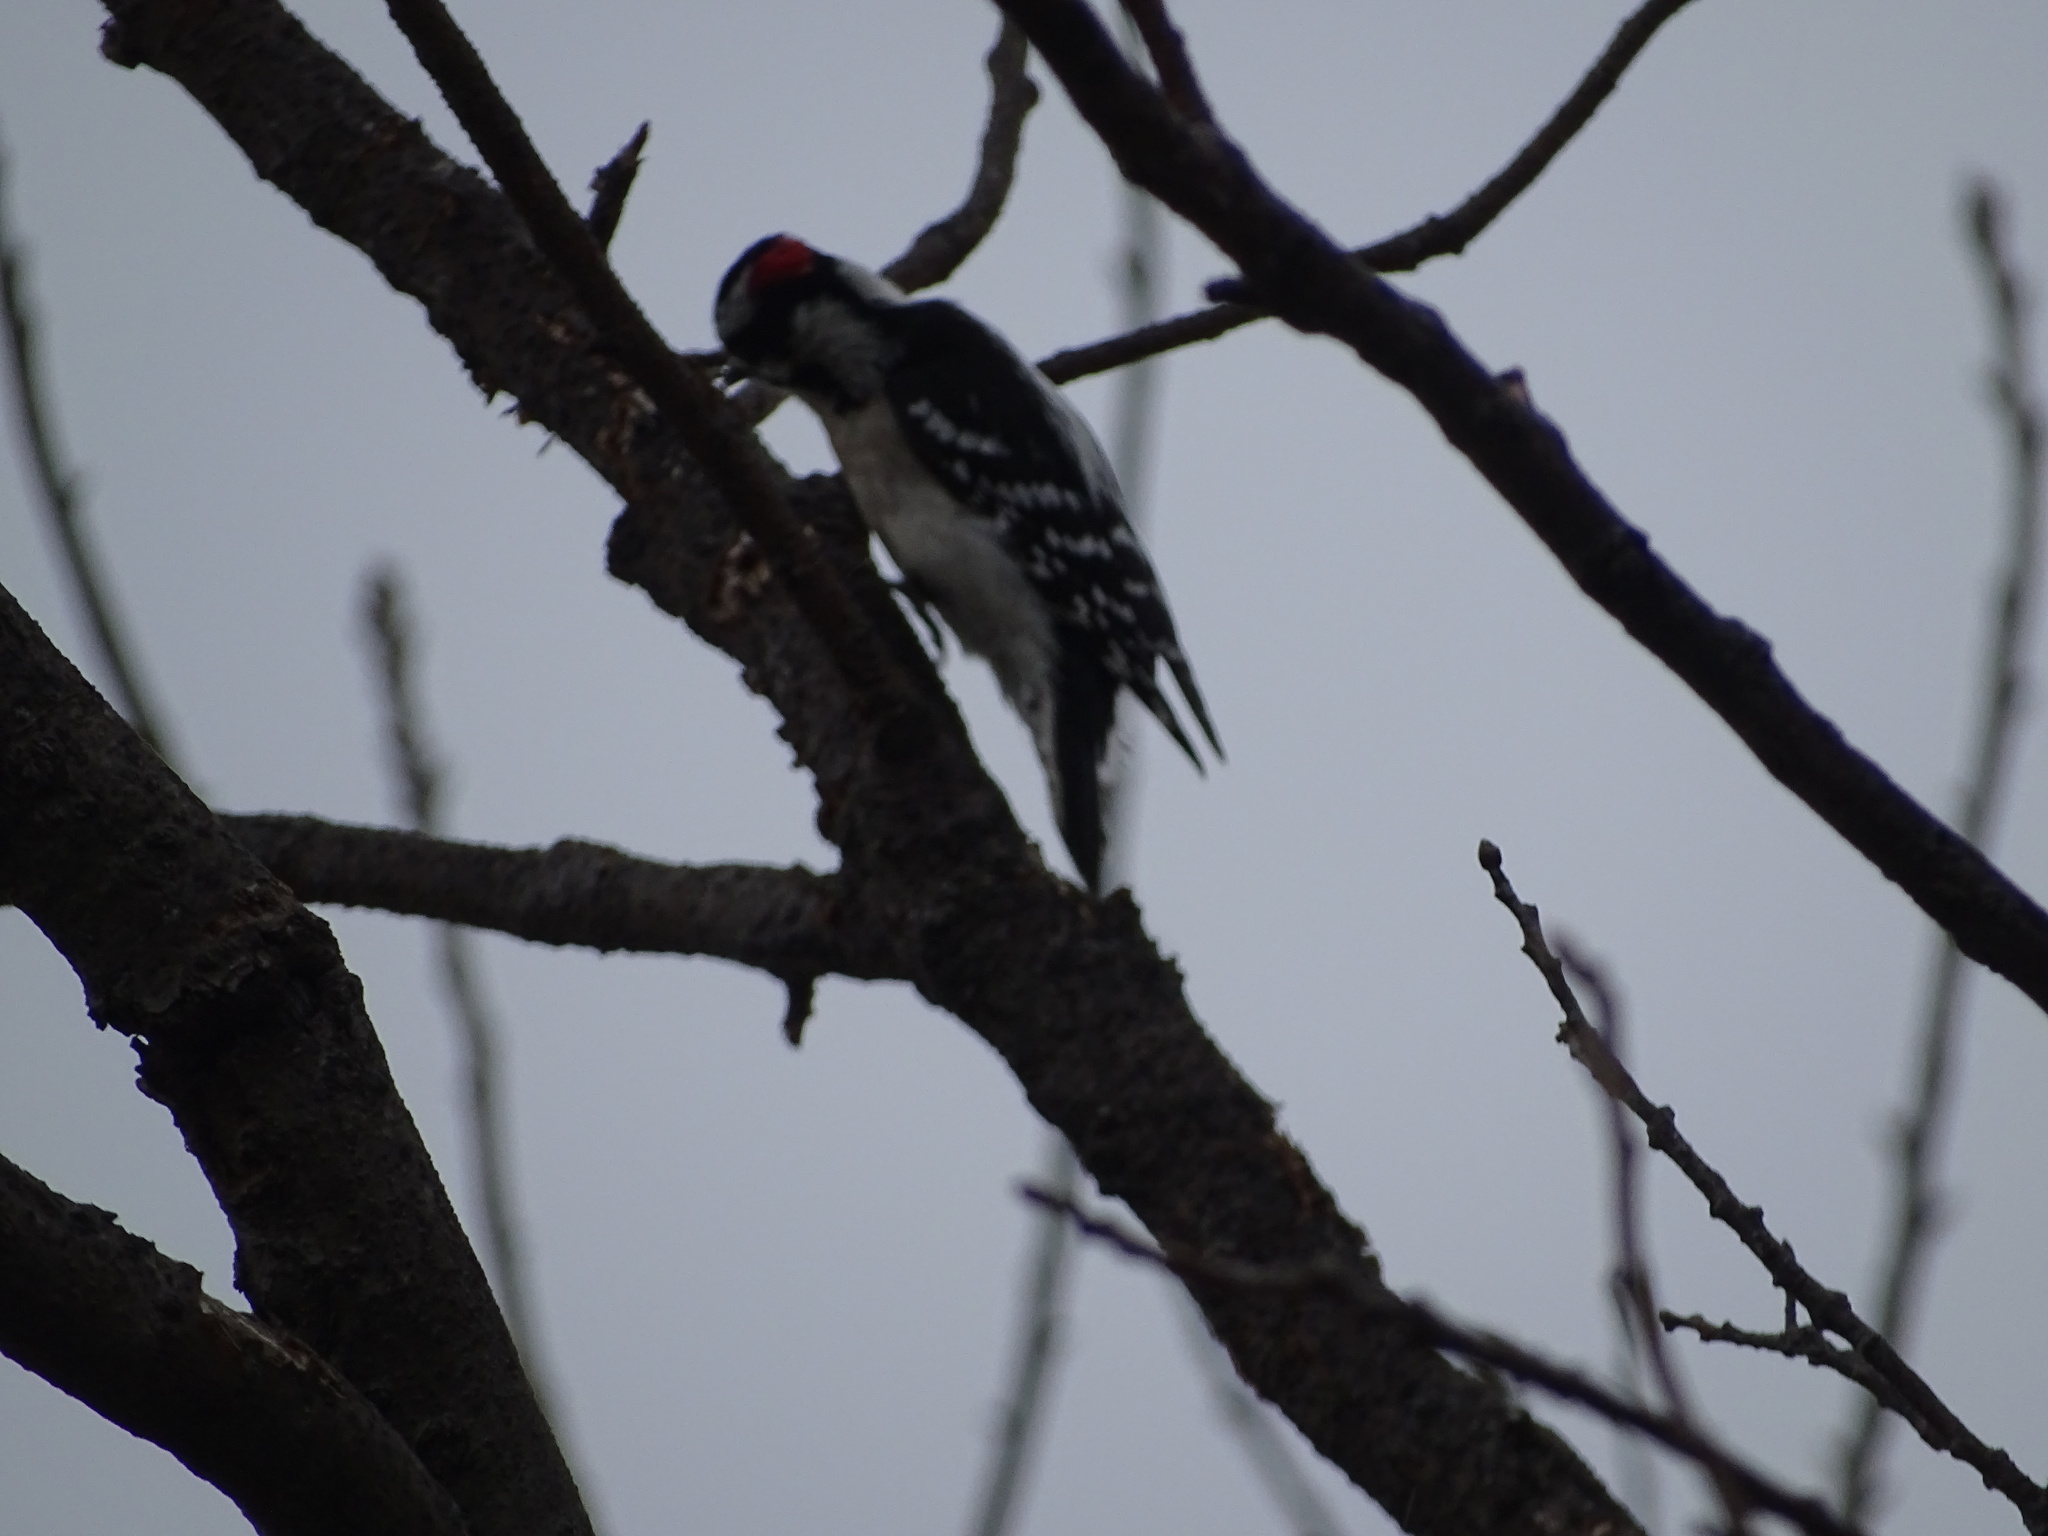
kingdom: Animalia
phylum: Chordata
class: Aves
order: Piciformes
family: Picidae
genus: Dryobates
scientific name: Dryobates pubescens
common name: Downy woodpecker
